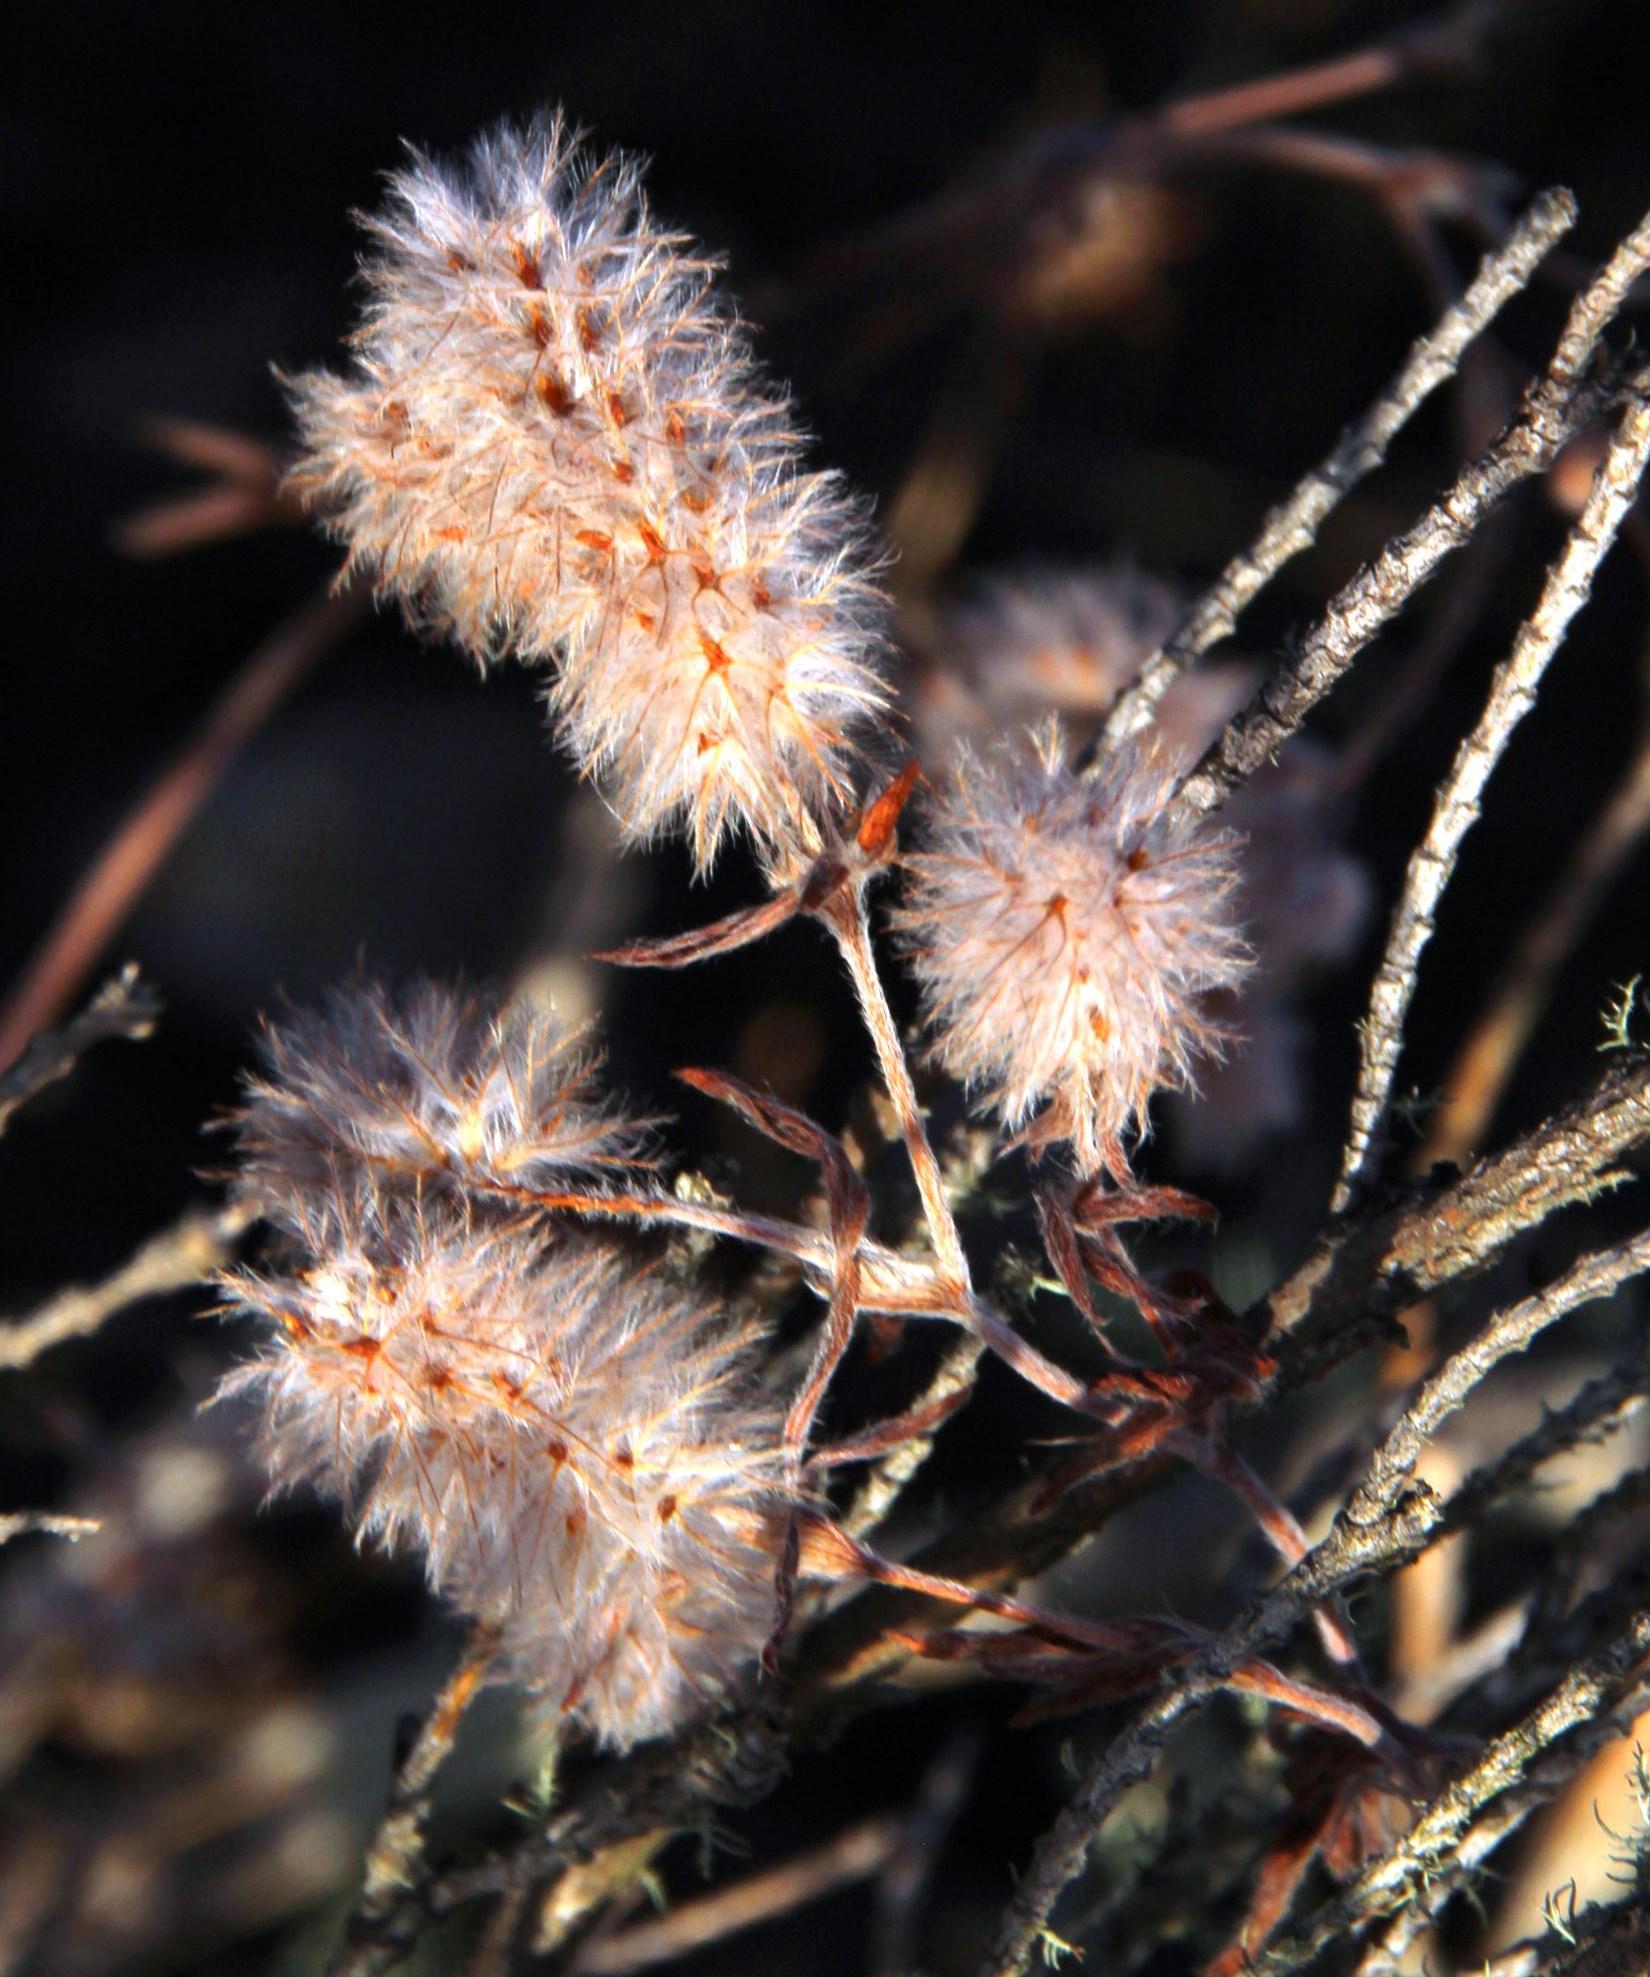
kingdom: Plantae
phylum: Tracheophyta
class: Magnoliopsida
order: Fabales
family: Fabaceae
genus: Trifolium
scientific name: Trifolium arvense
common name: Hare's-foot clover
